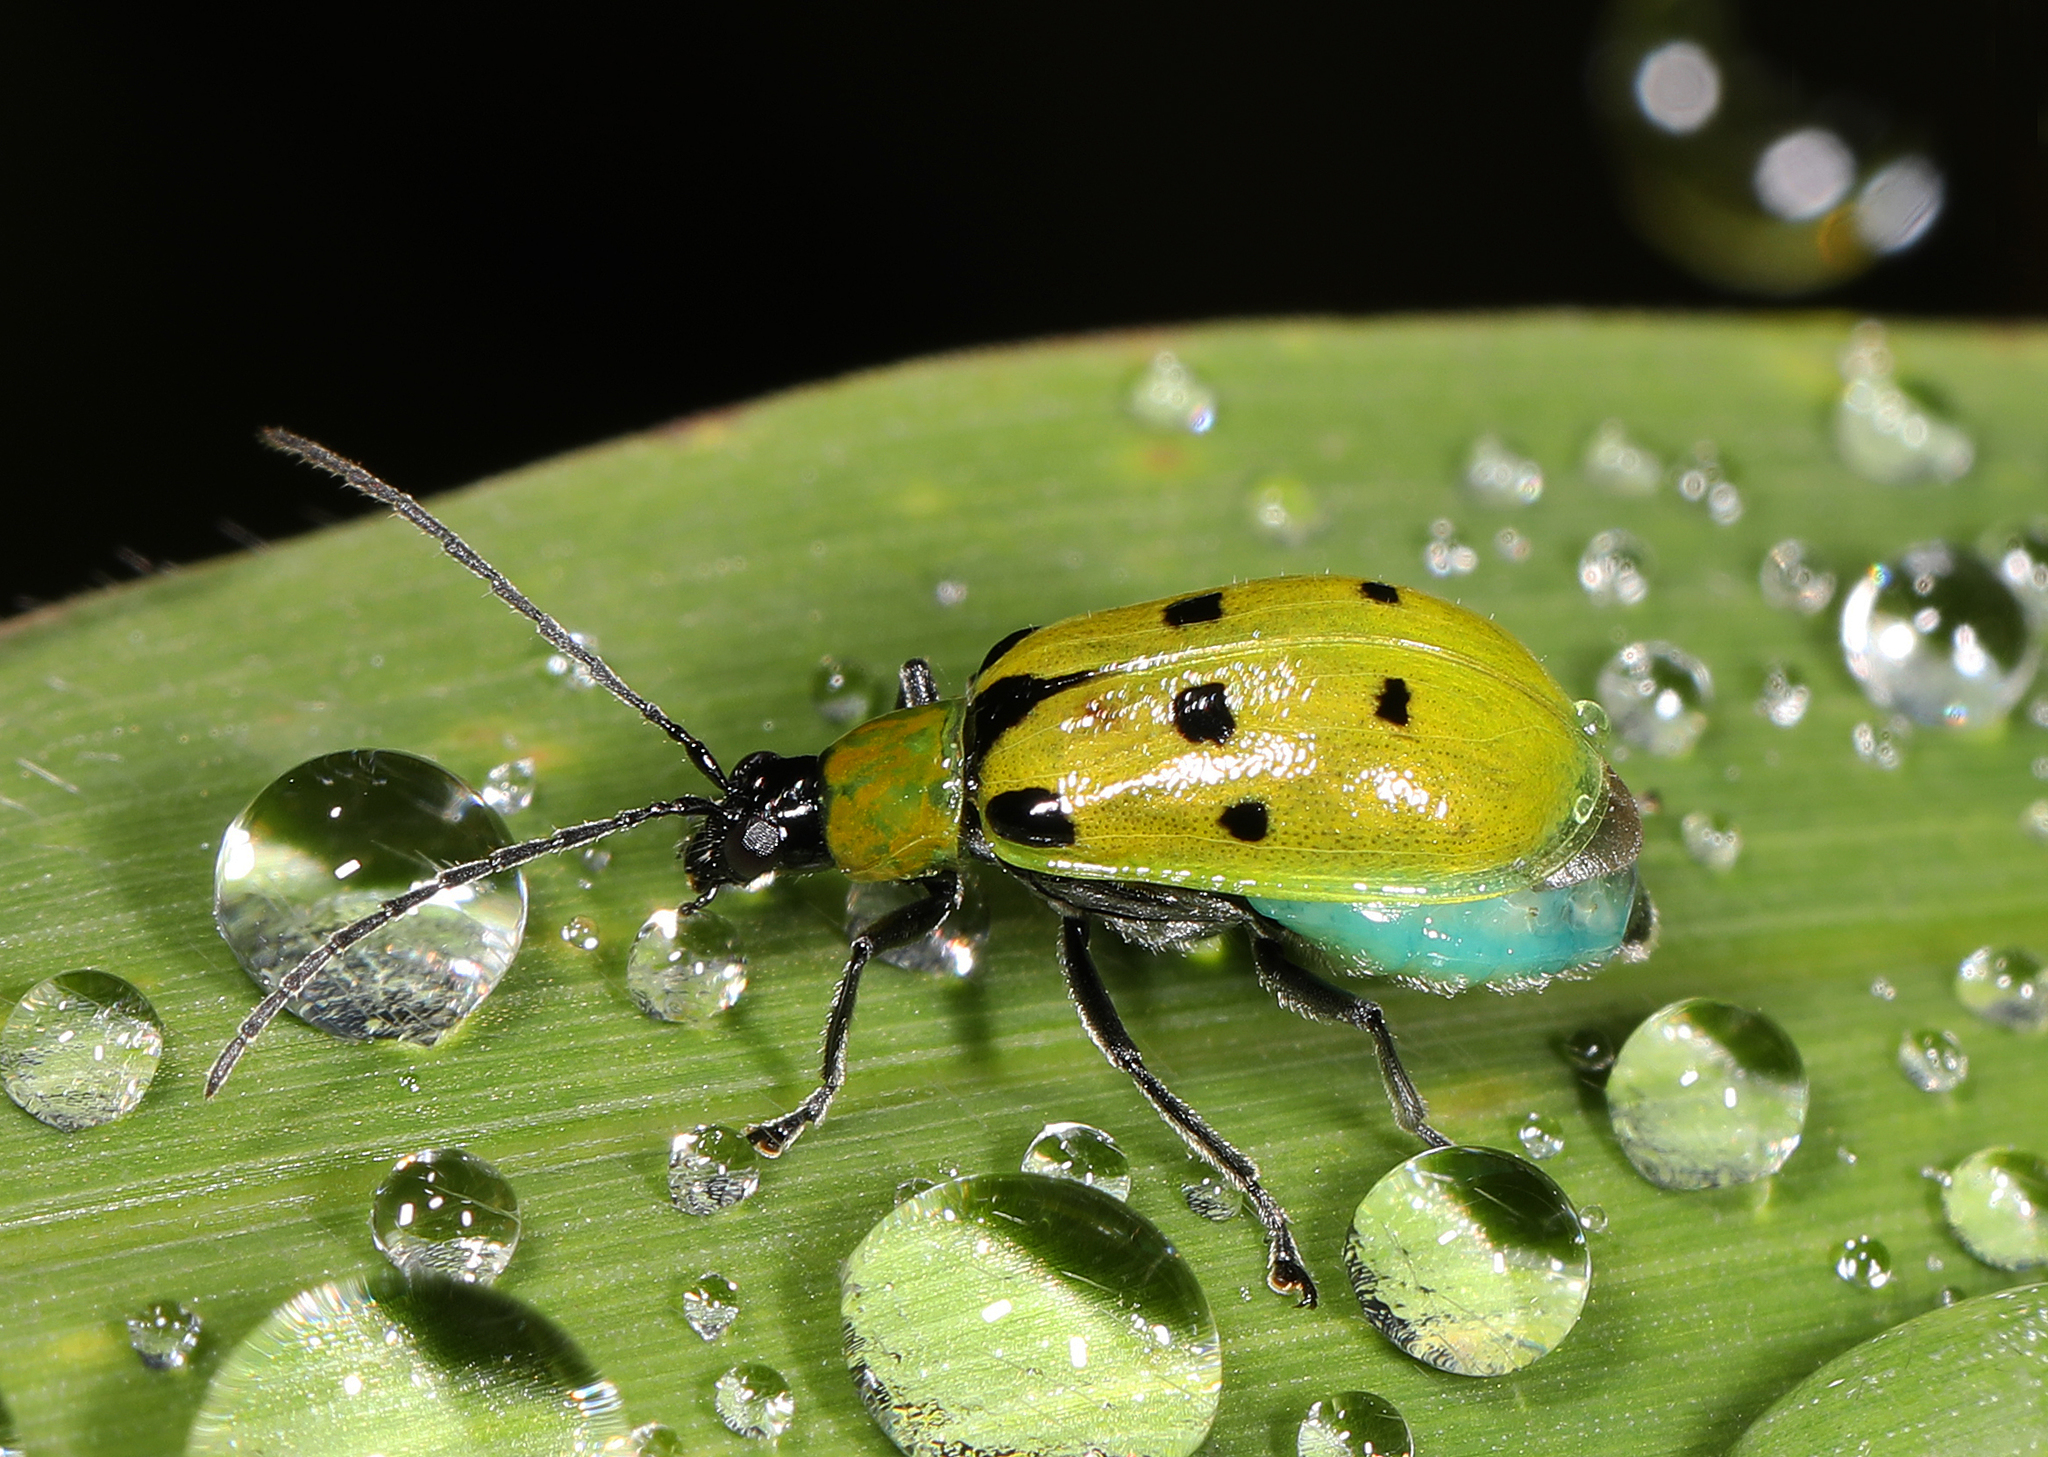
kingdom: Animalia
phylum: Arthropoda
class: Insecta
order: Coleoptera
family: Chrysomelidae
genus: Diabrotica
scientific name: Diabrotica decempunctata
